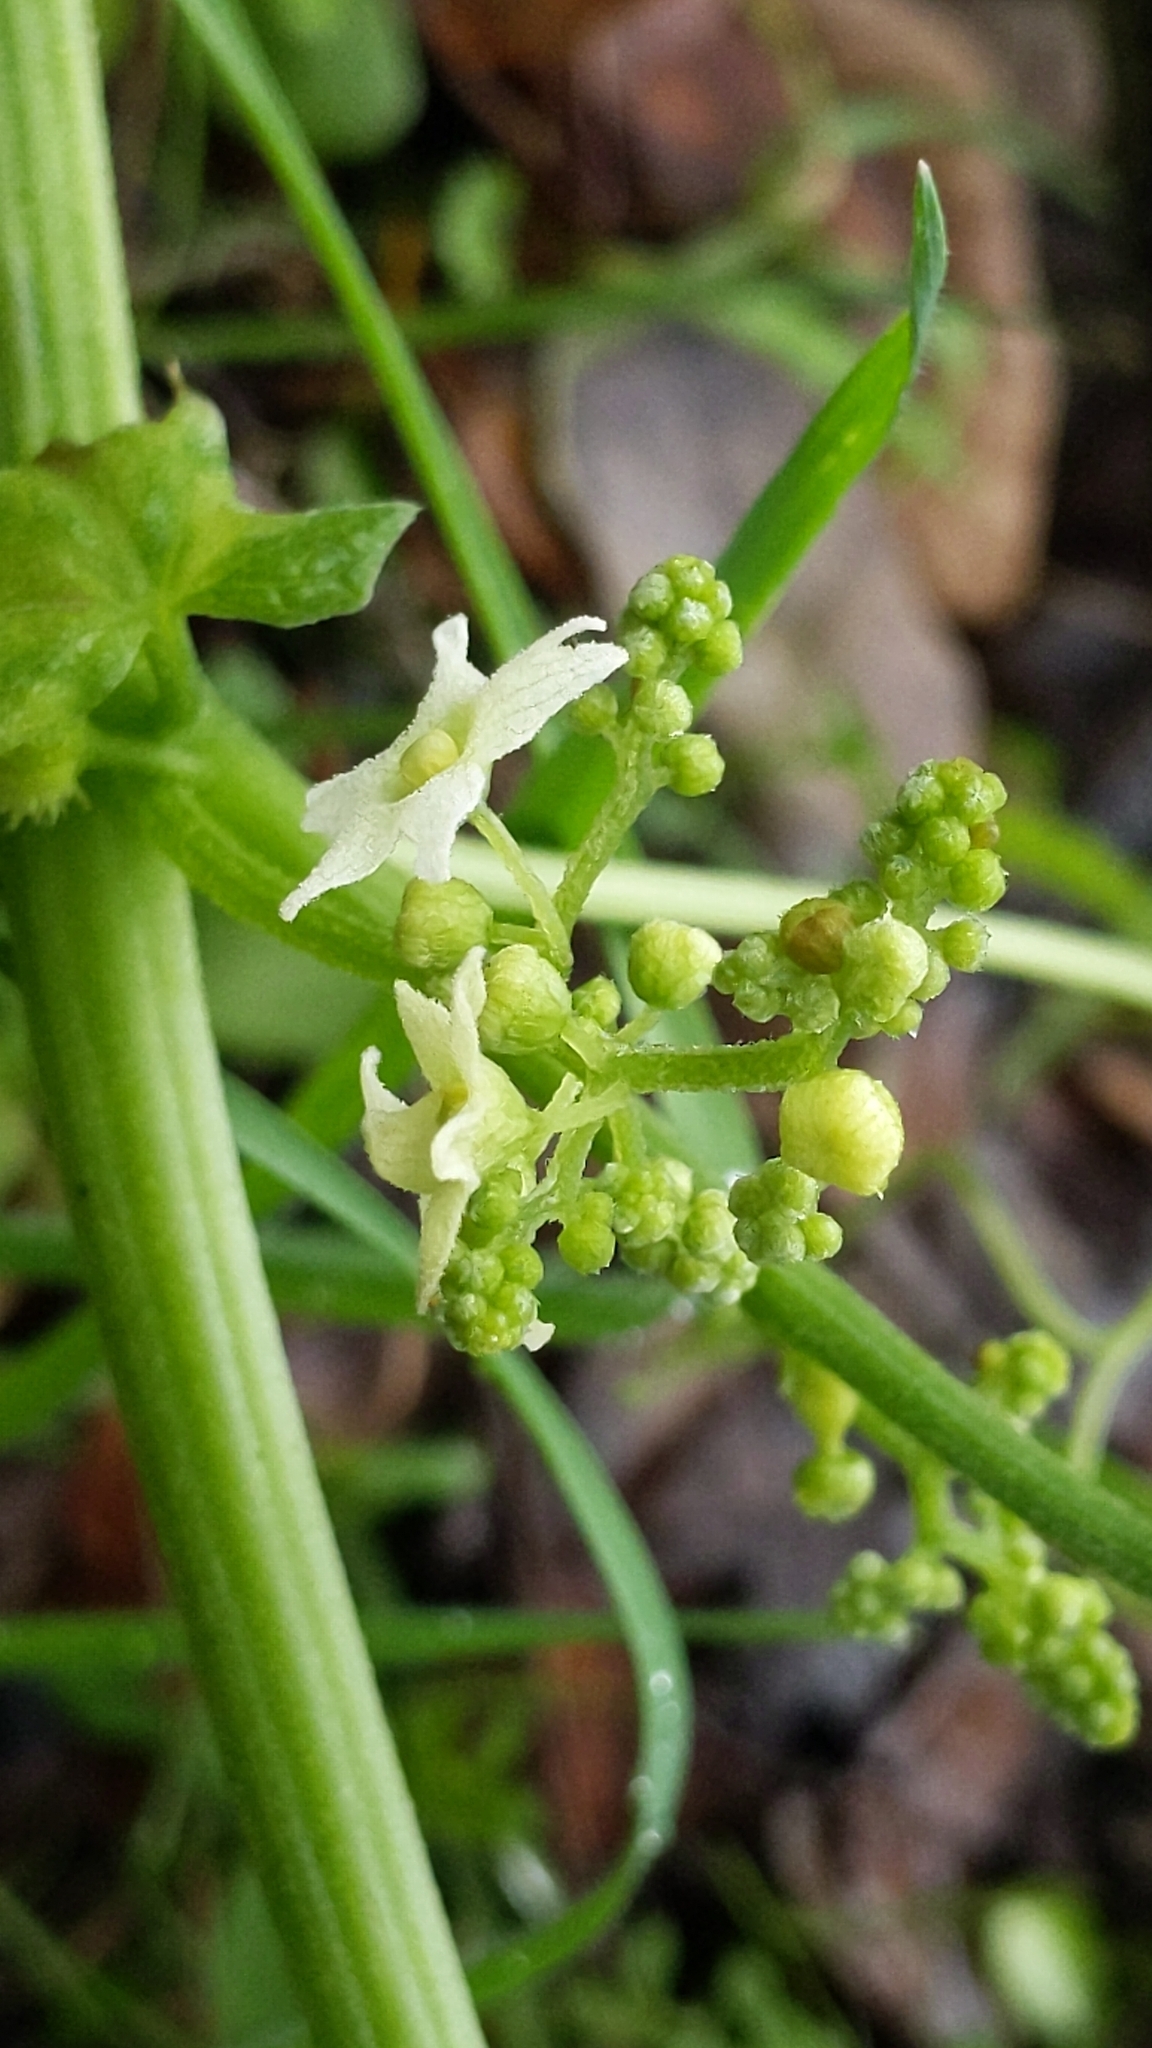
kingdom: Plantae
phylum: Tracheophyta
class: Magnoliopsida
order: Cucurbitales
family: Cucurbitaceae
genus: Marah
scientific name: Marah fabacea
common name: California manroot
